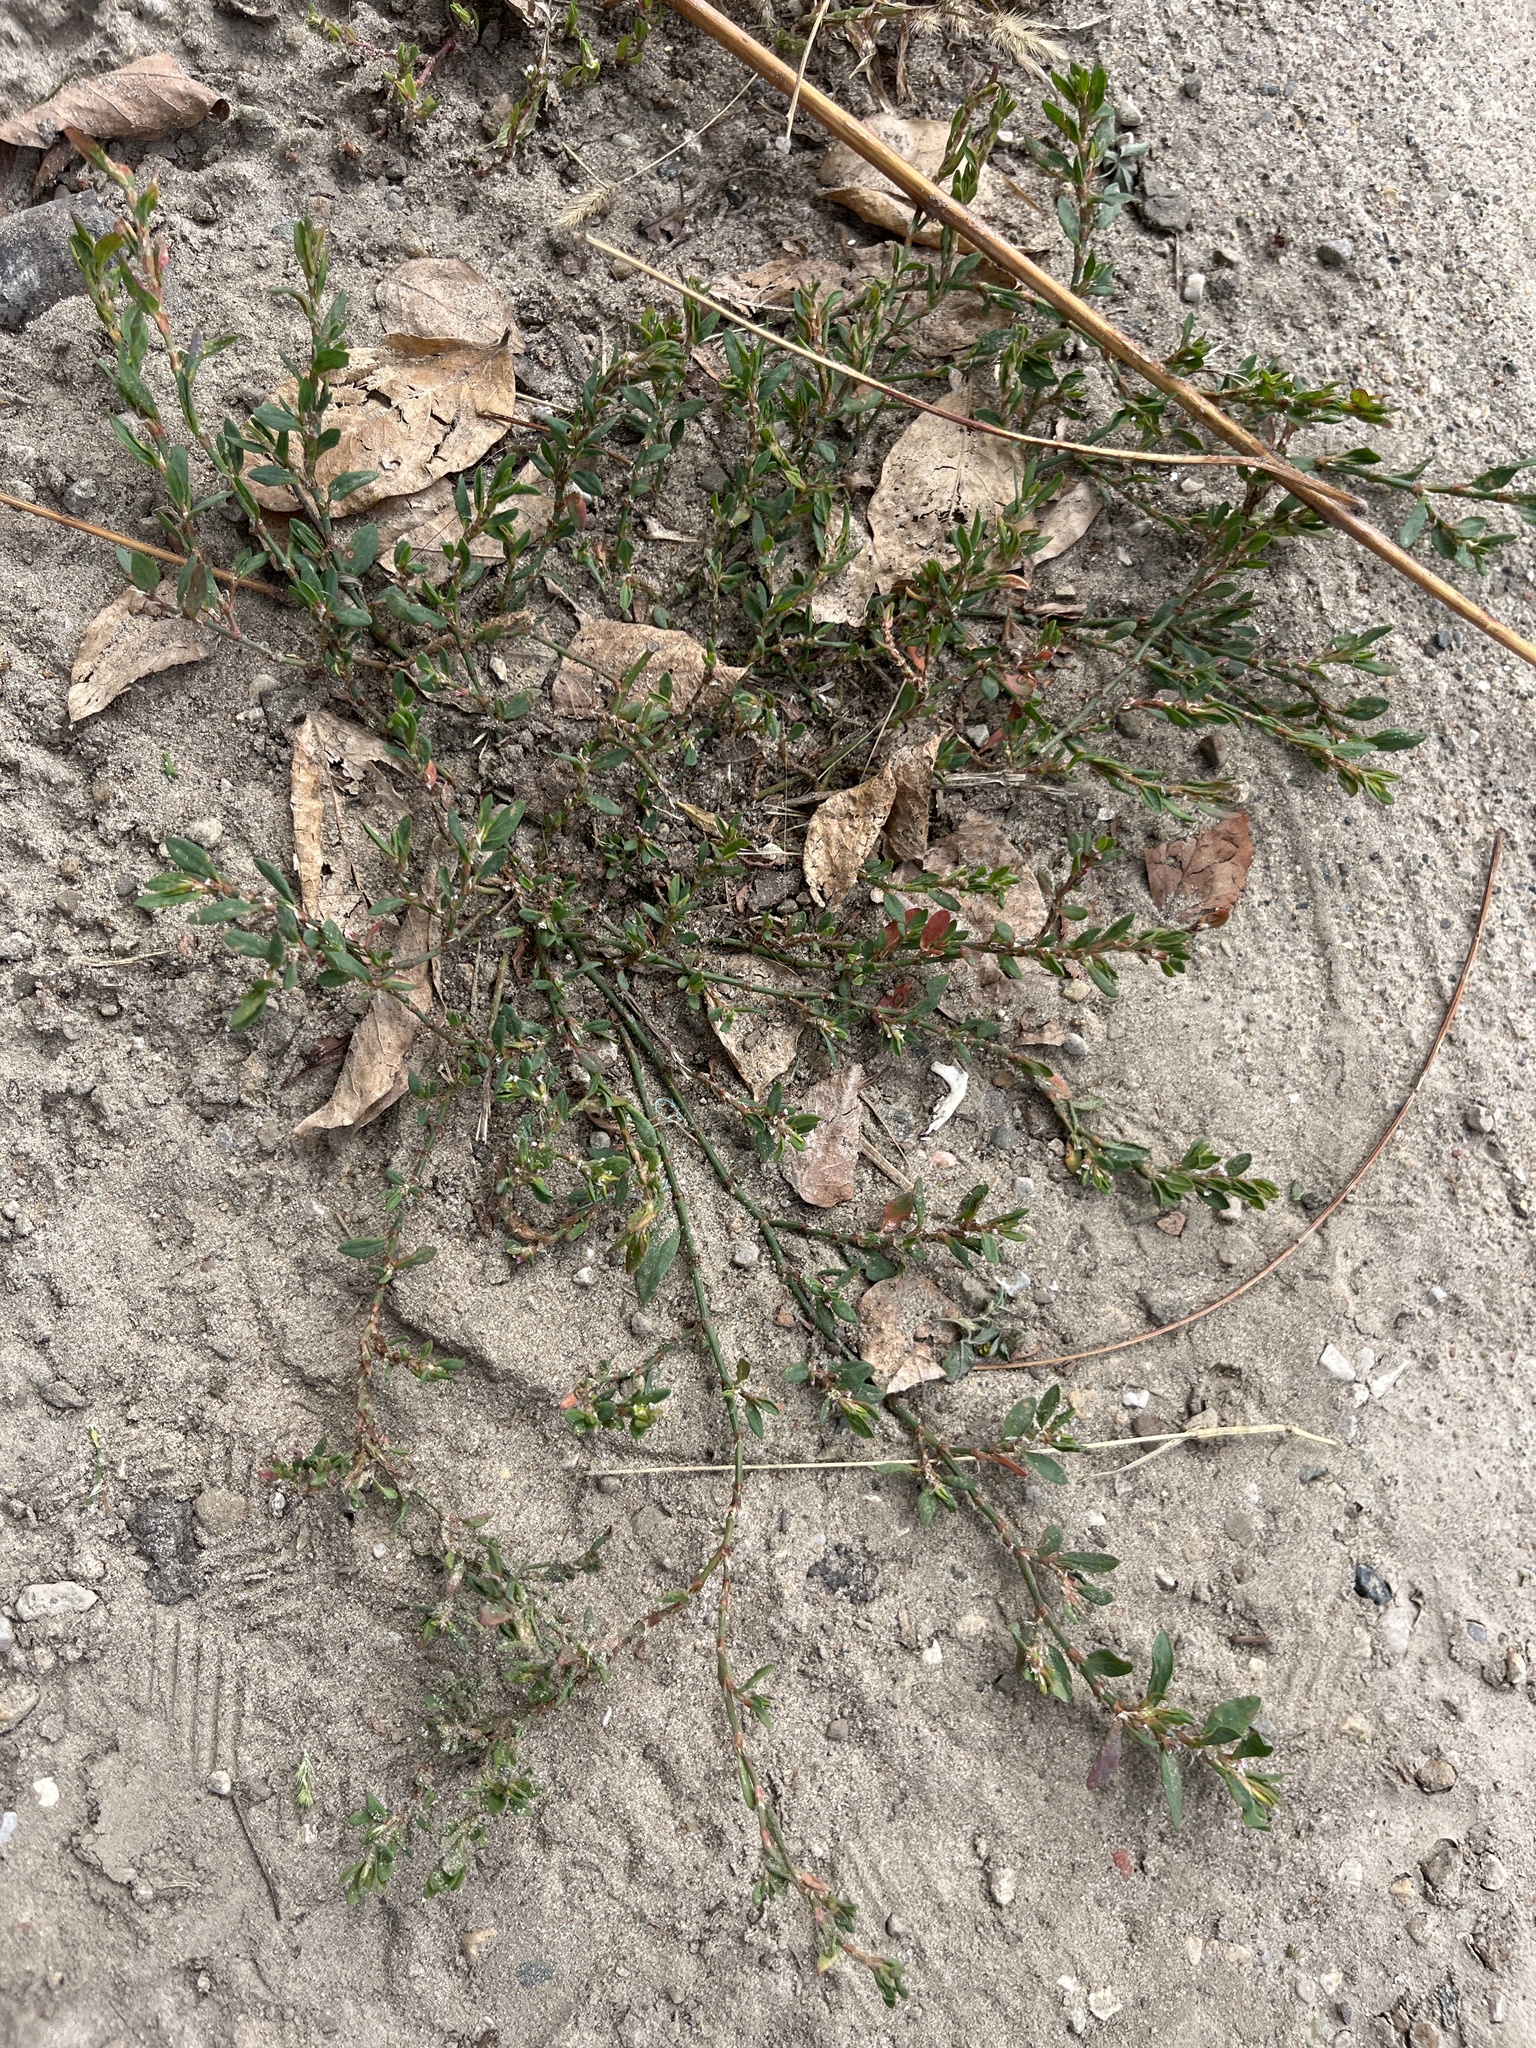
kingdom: Plantae
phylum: Tracheophyta
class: Magnoliopsida
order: Caryophyllales
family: Polygonaceae
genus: Polygonum
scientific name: Polygonum aviculare
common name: Prostrate knotweed
